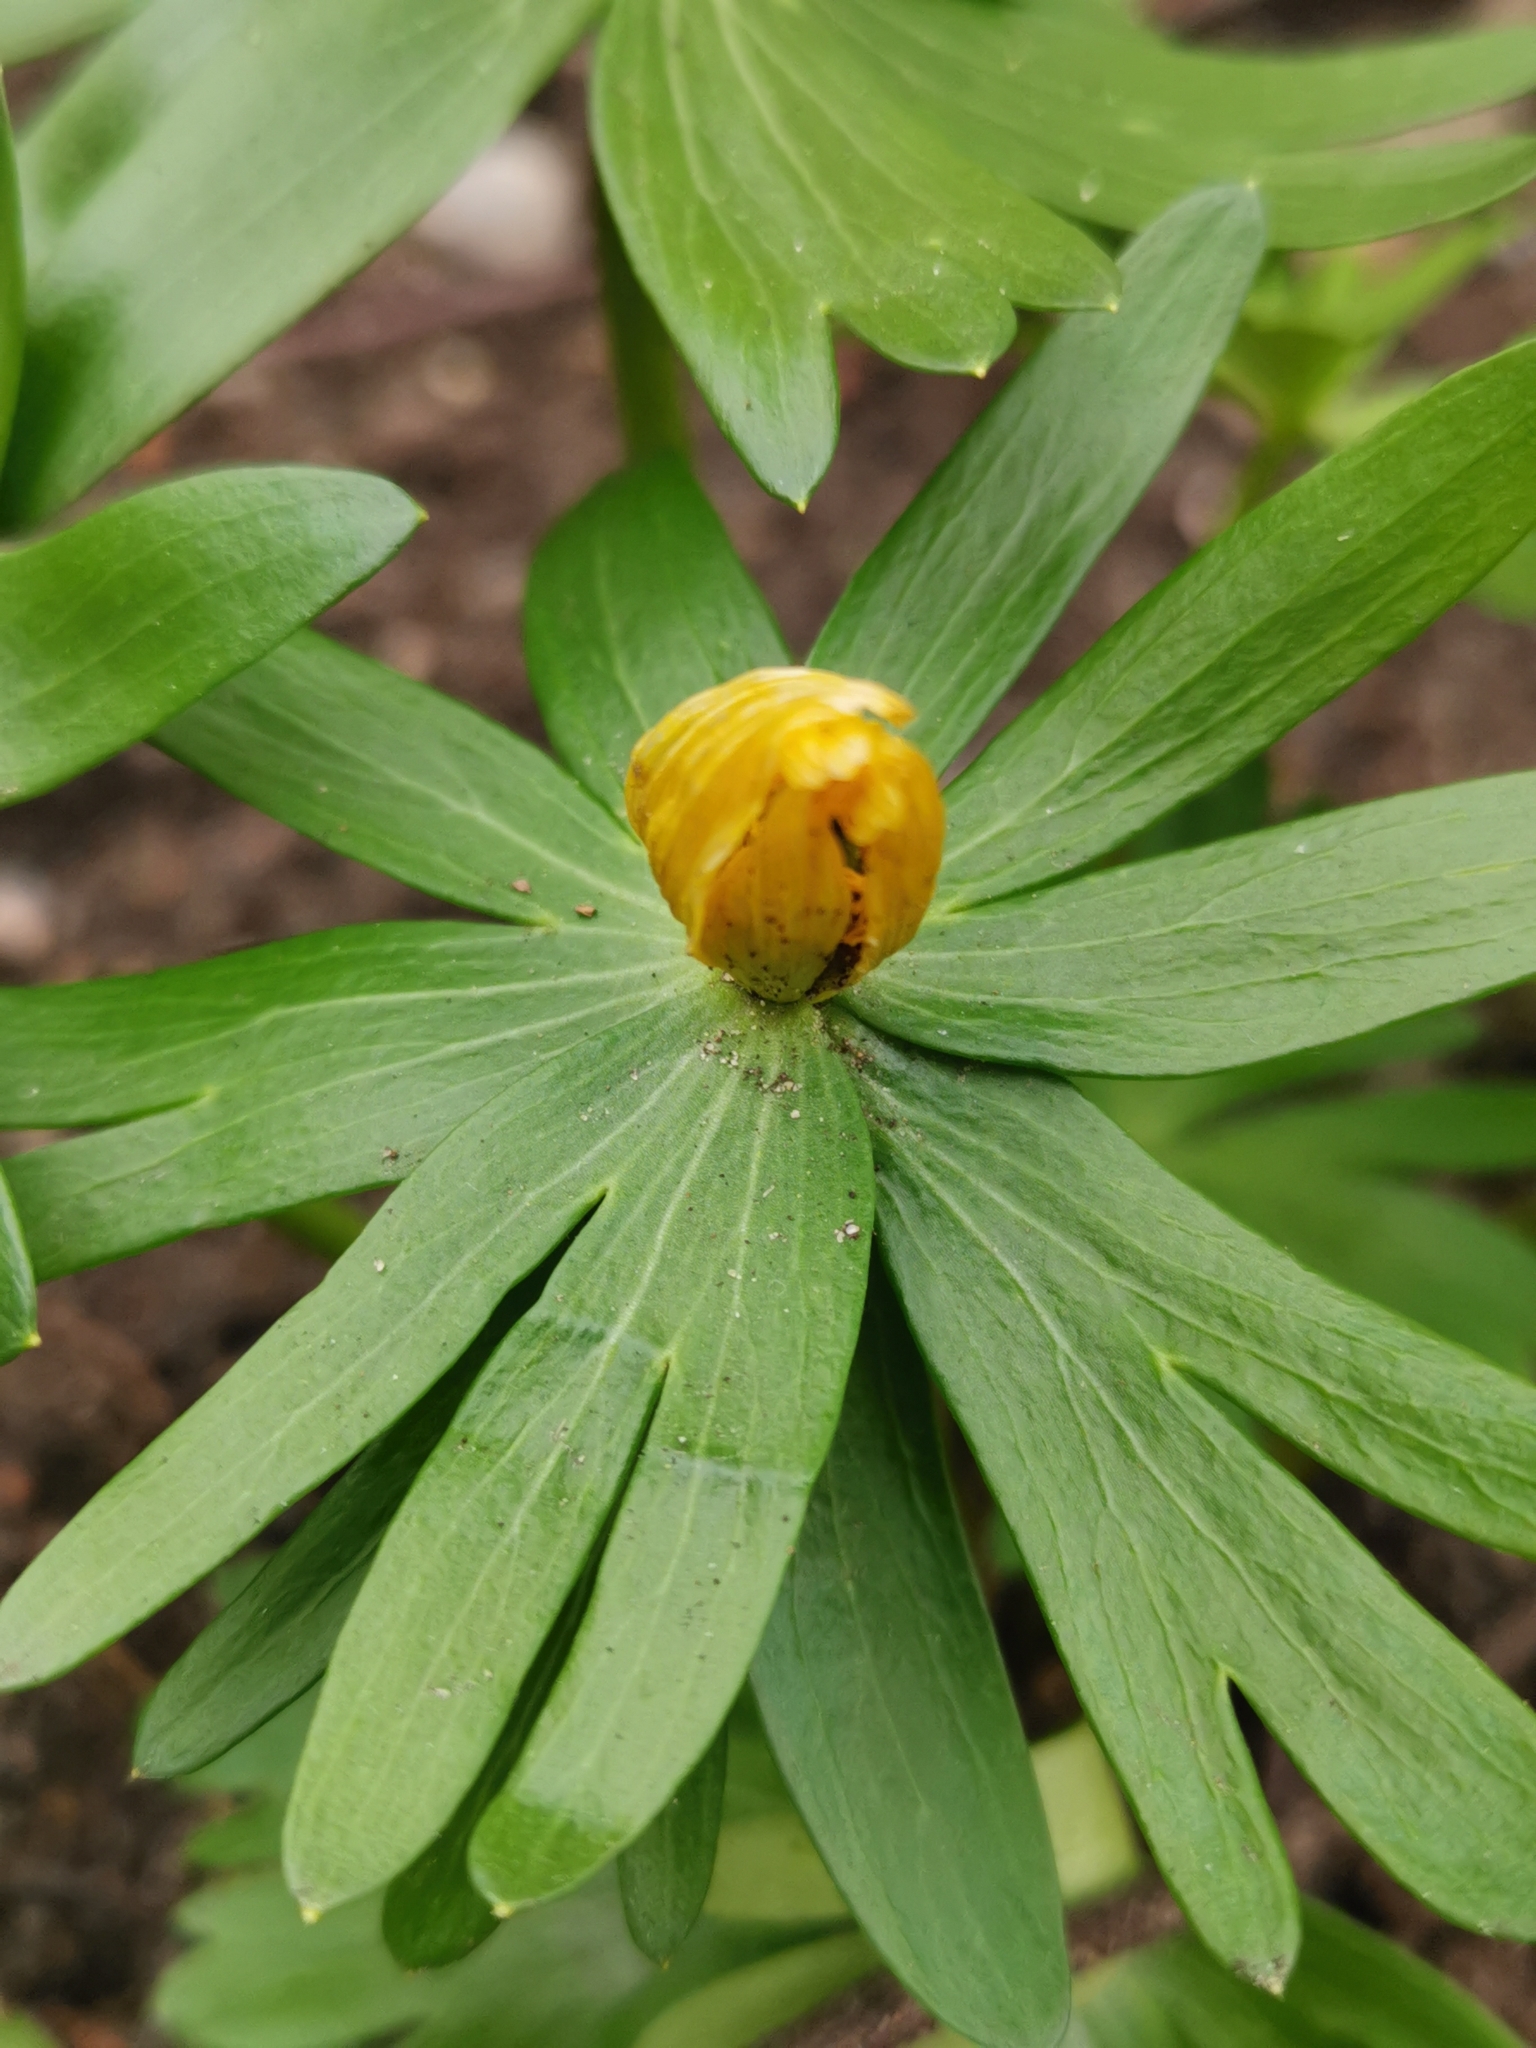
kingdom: Plantae
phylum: Tracheophyta
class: Magnoliopsida
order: Ranunculales
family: Ranunculaceae
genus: Eranthis
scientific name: Eranthis hyemalis
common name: Winter aconite
